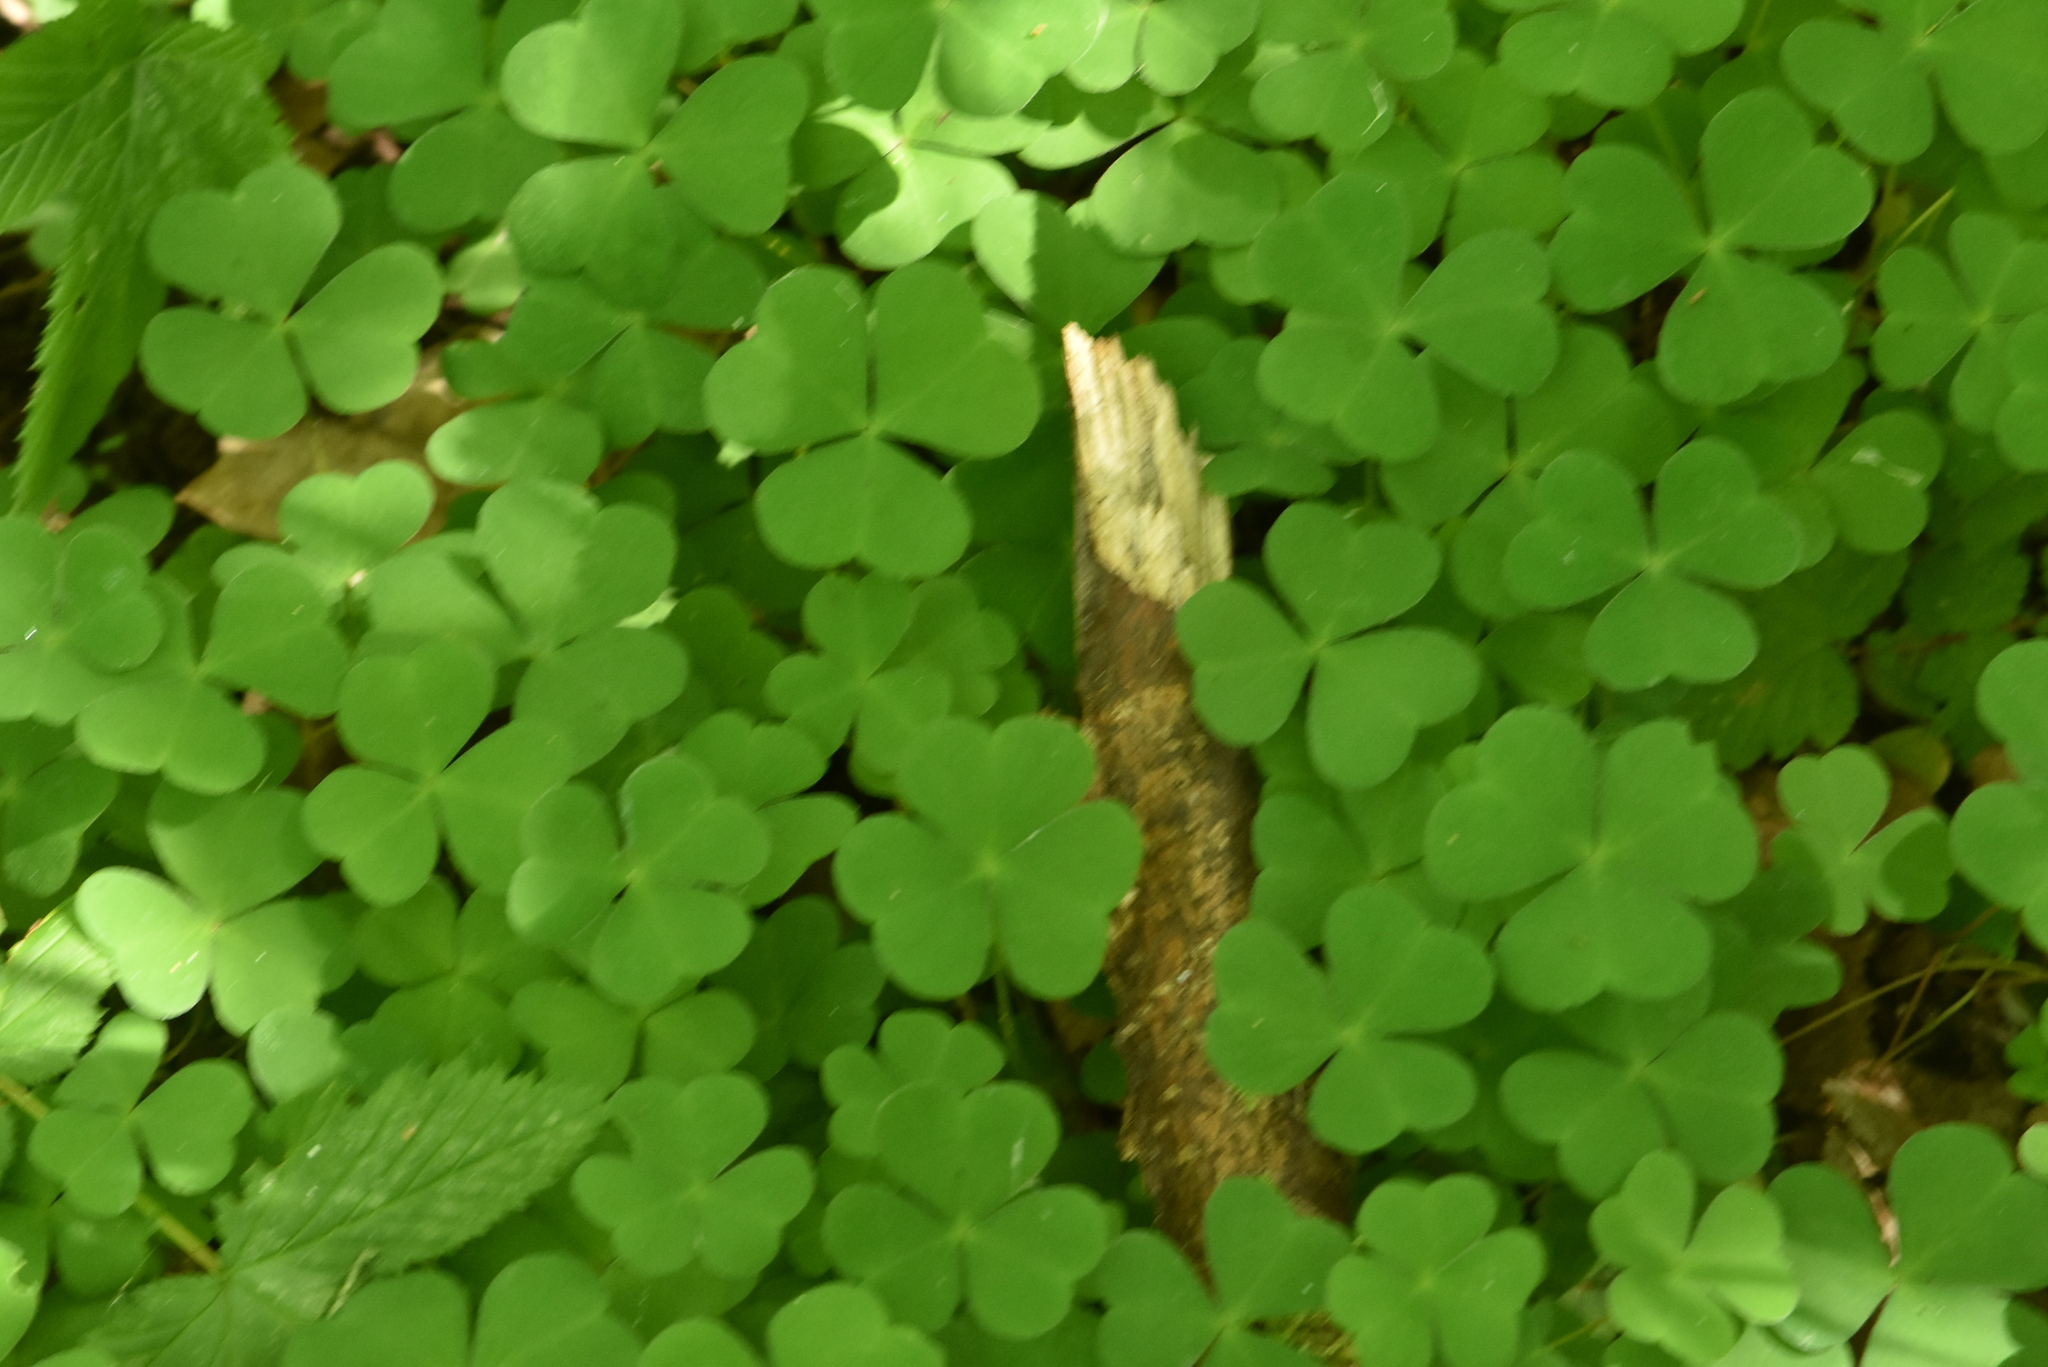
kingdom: Plantae
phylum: Tracheophyta
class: Magnoliopsida
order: Oxalidales
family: Oxalidaceae
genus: Oxalis
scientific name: Oxalis acetosella
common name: Wood-sorrel
